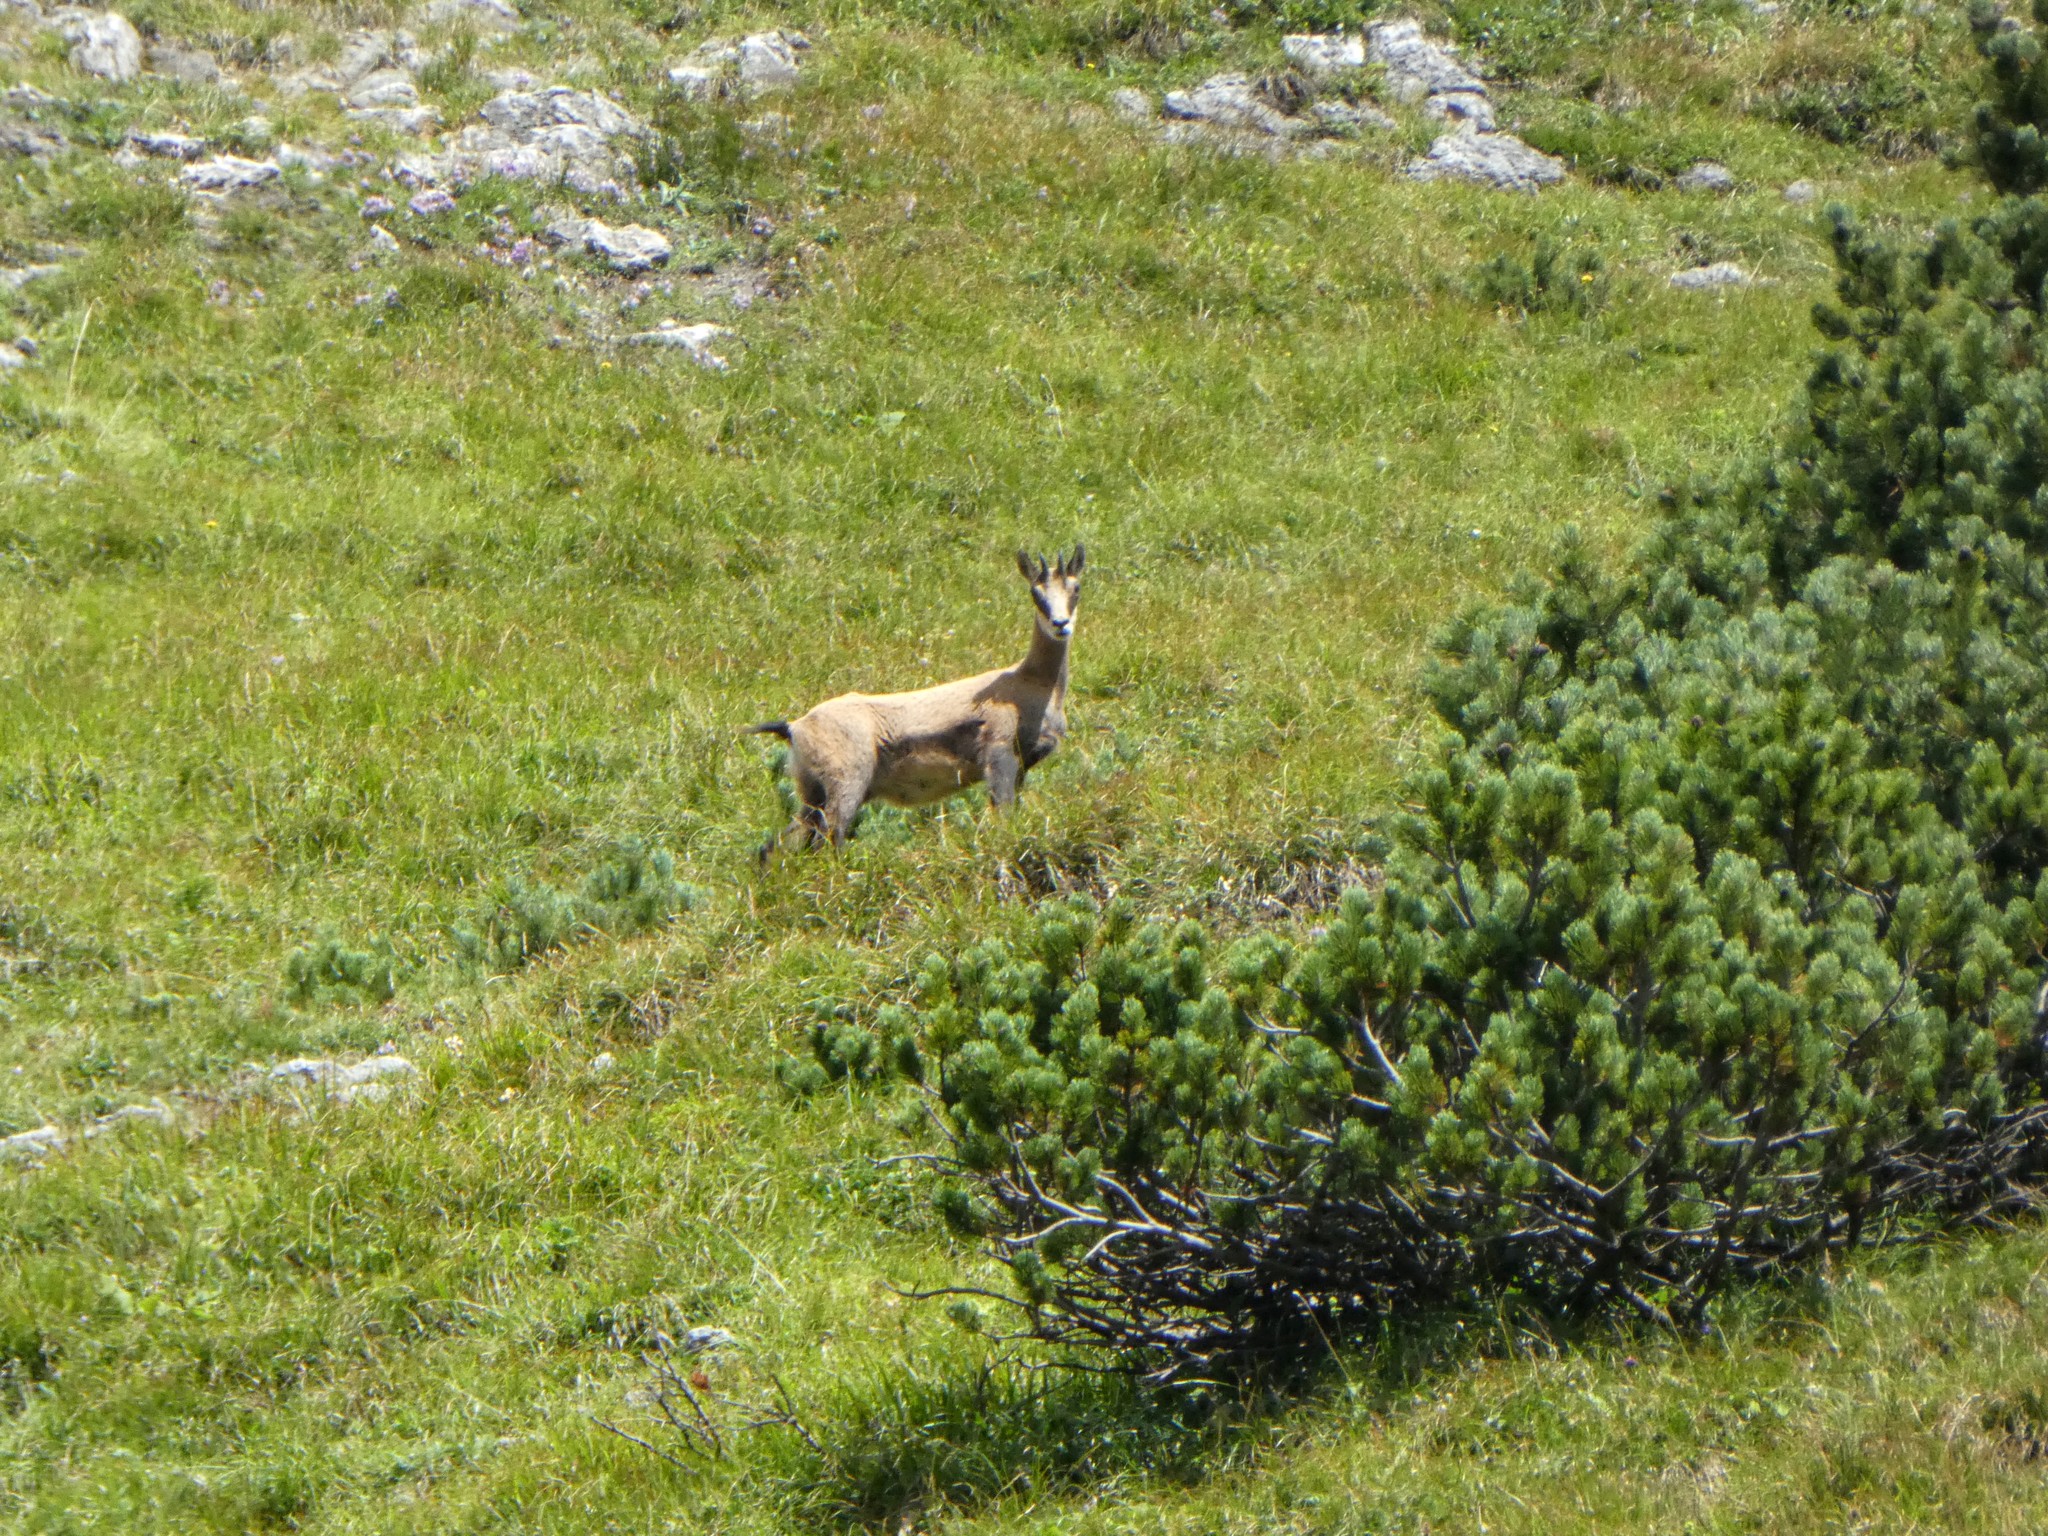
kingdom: Animalia
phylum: Chordata
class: Mammalia
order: Artiodactyla
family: Bovidae
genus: Rupicapra
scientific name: Rupicapra rupicapra
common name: Chamois
